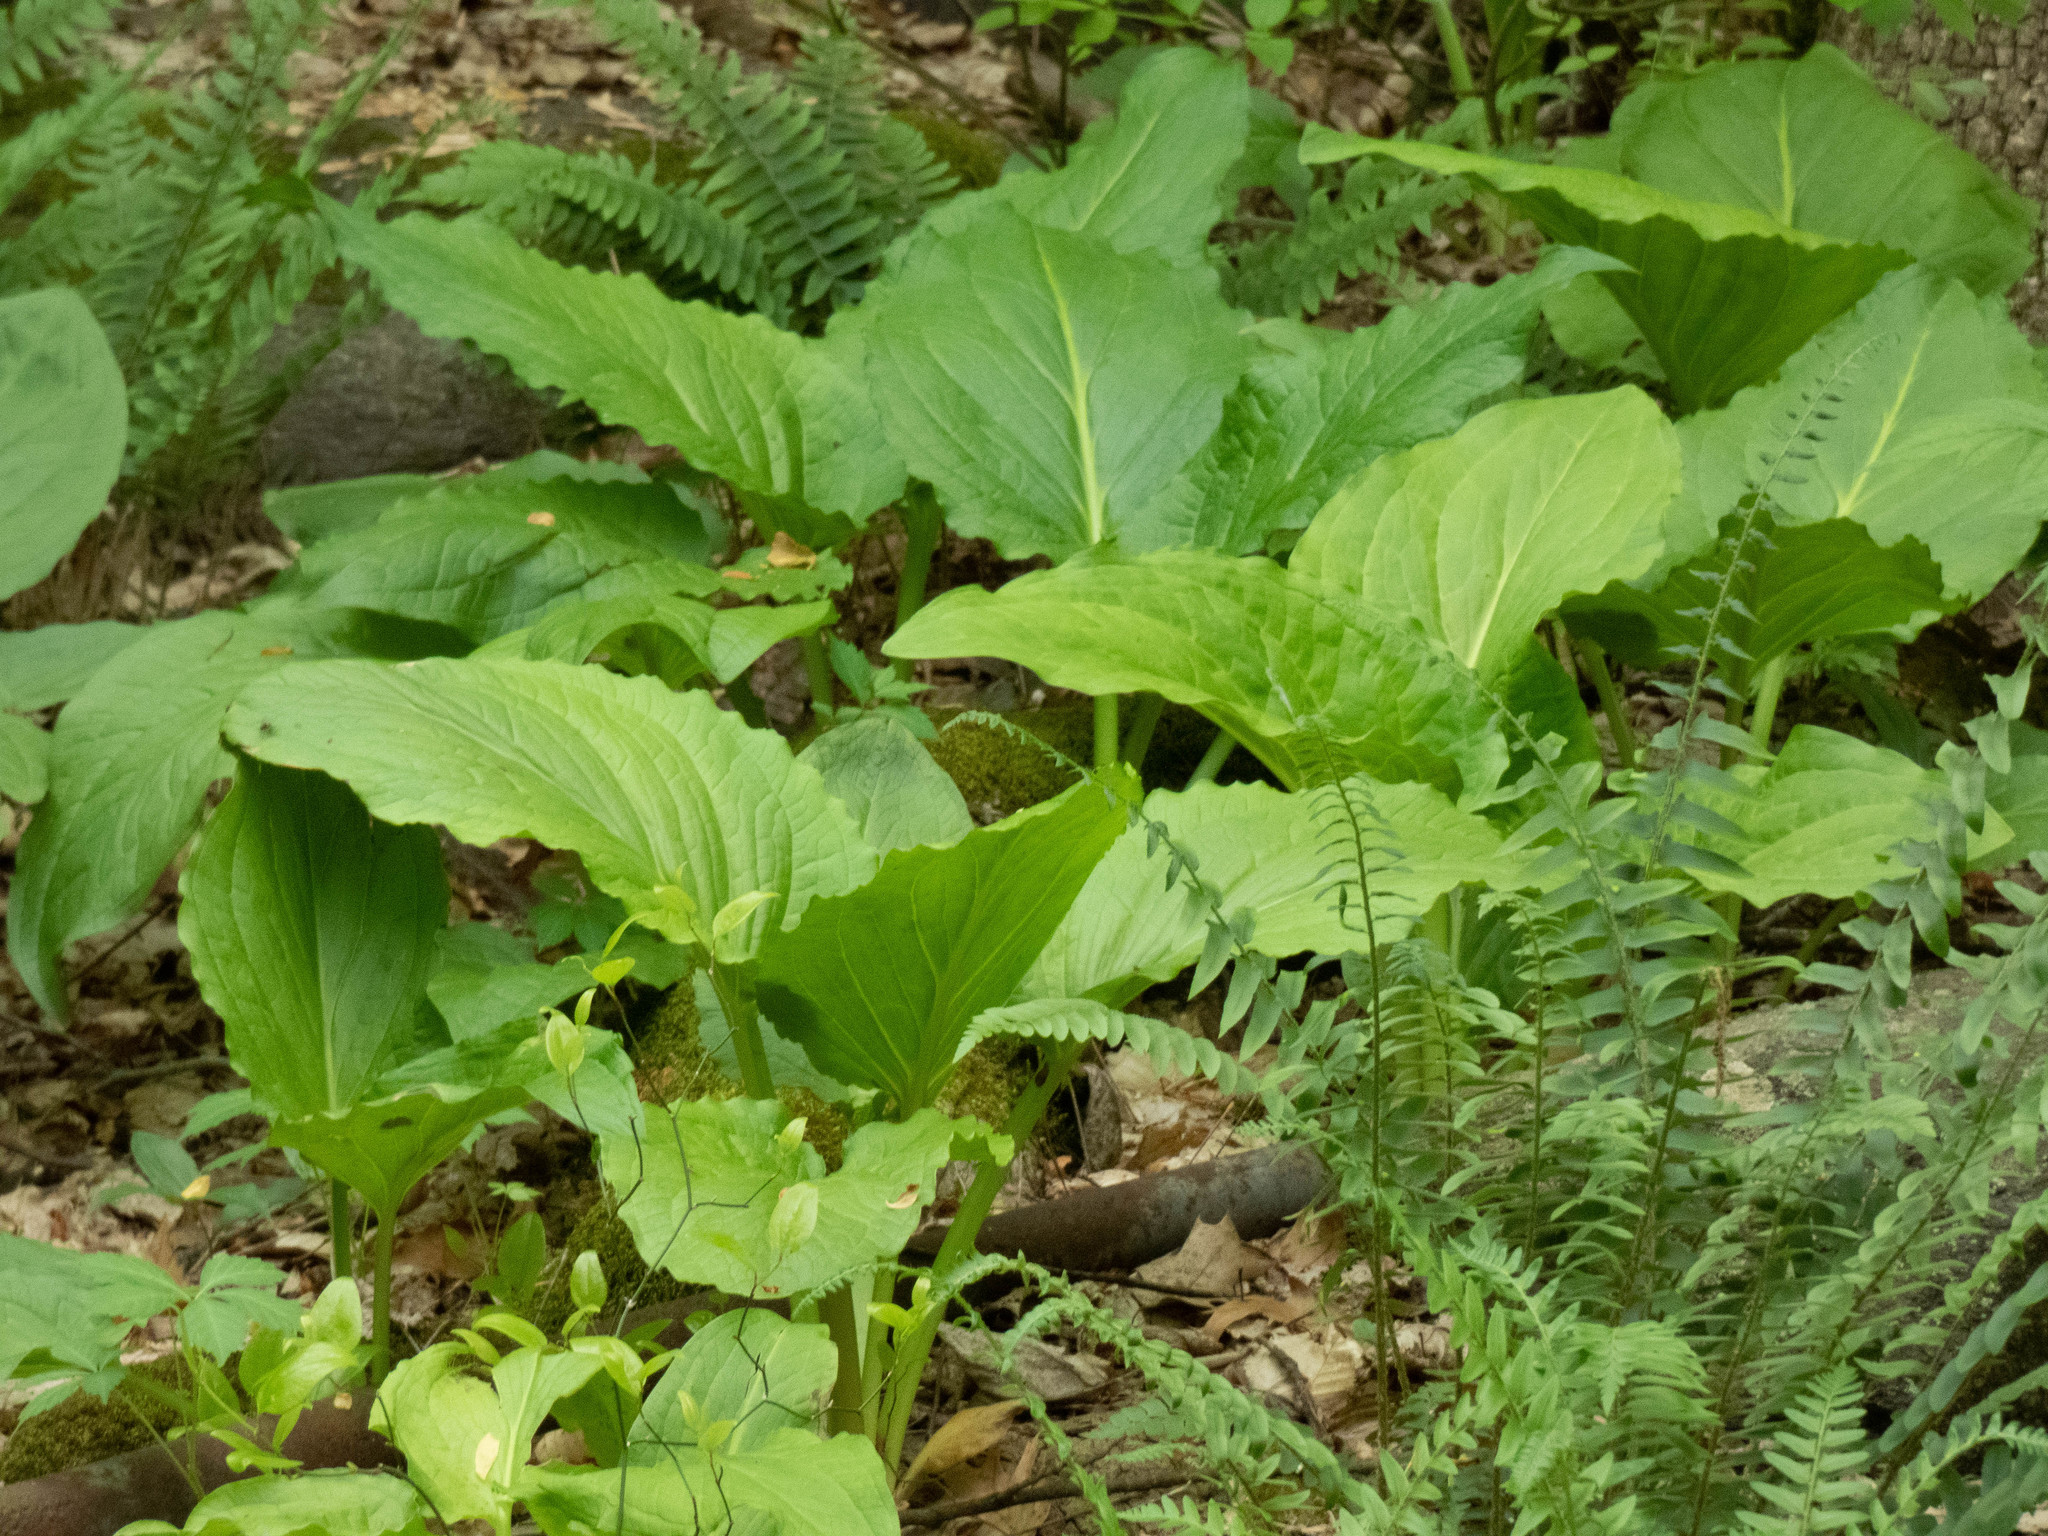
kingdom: Plantae
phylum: Tracheophyta
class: Liliopsida
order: Alismatales
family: Araceae
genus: Symplocarpus
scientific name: Symplocarpus foetidus
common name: Eastern skunk cabbage
